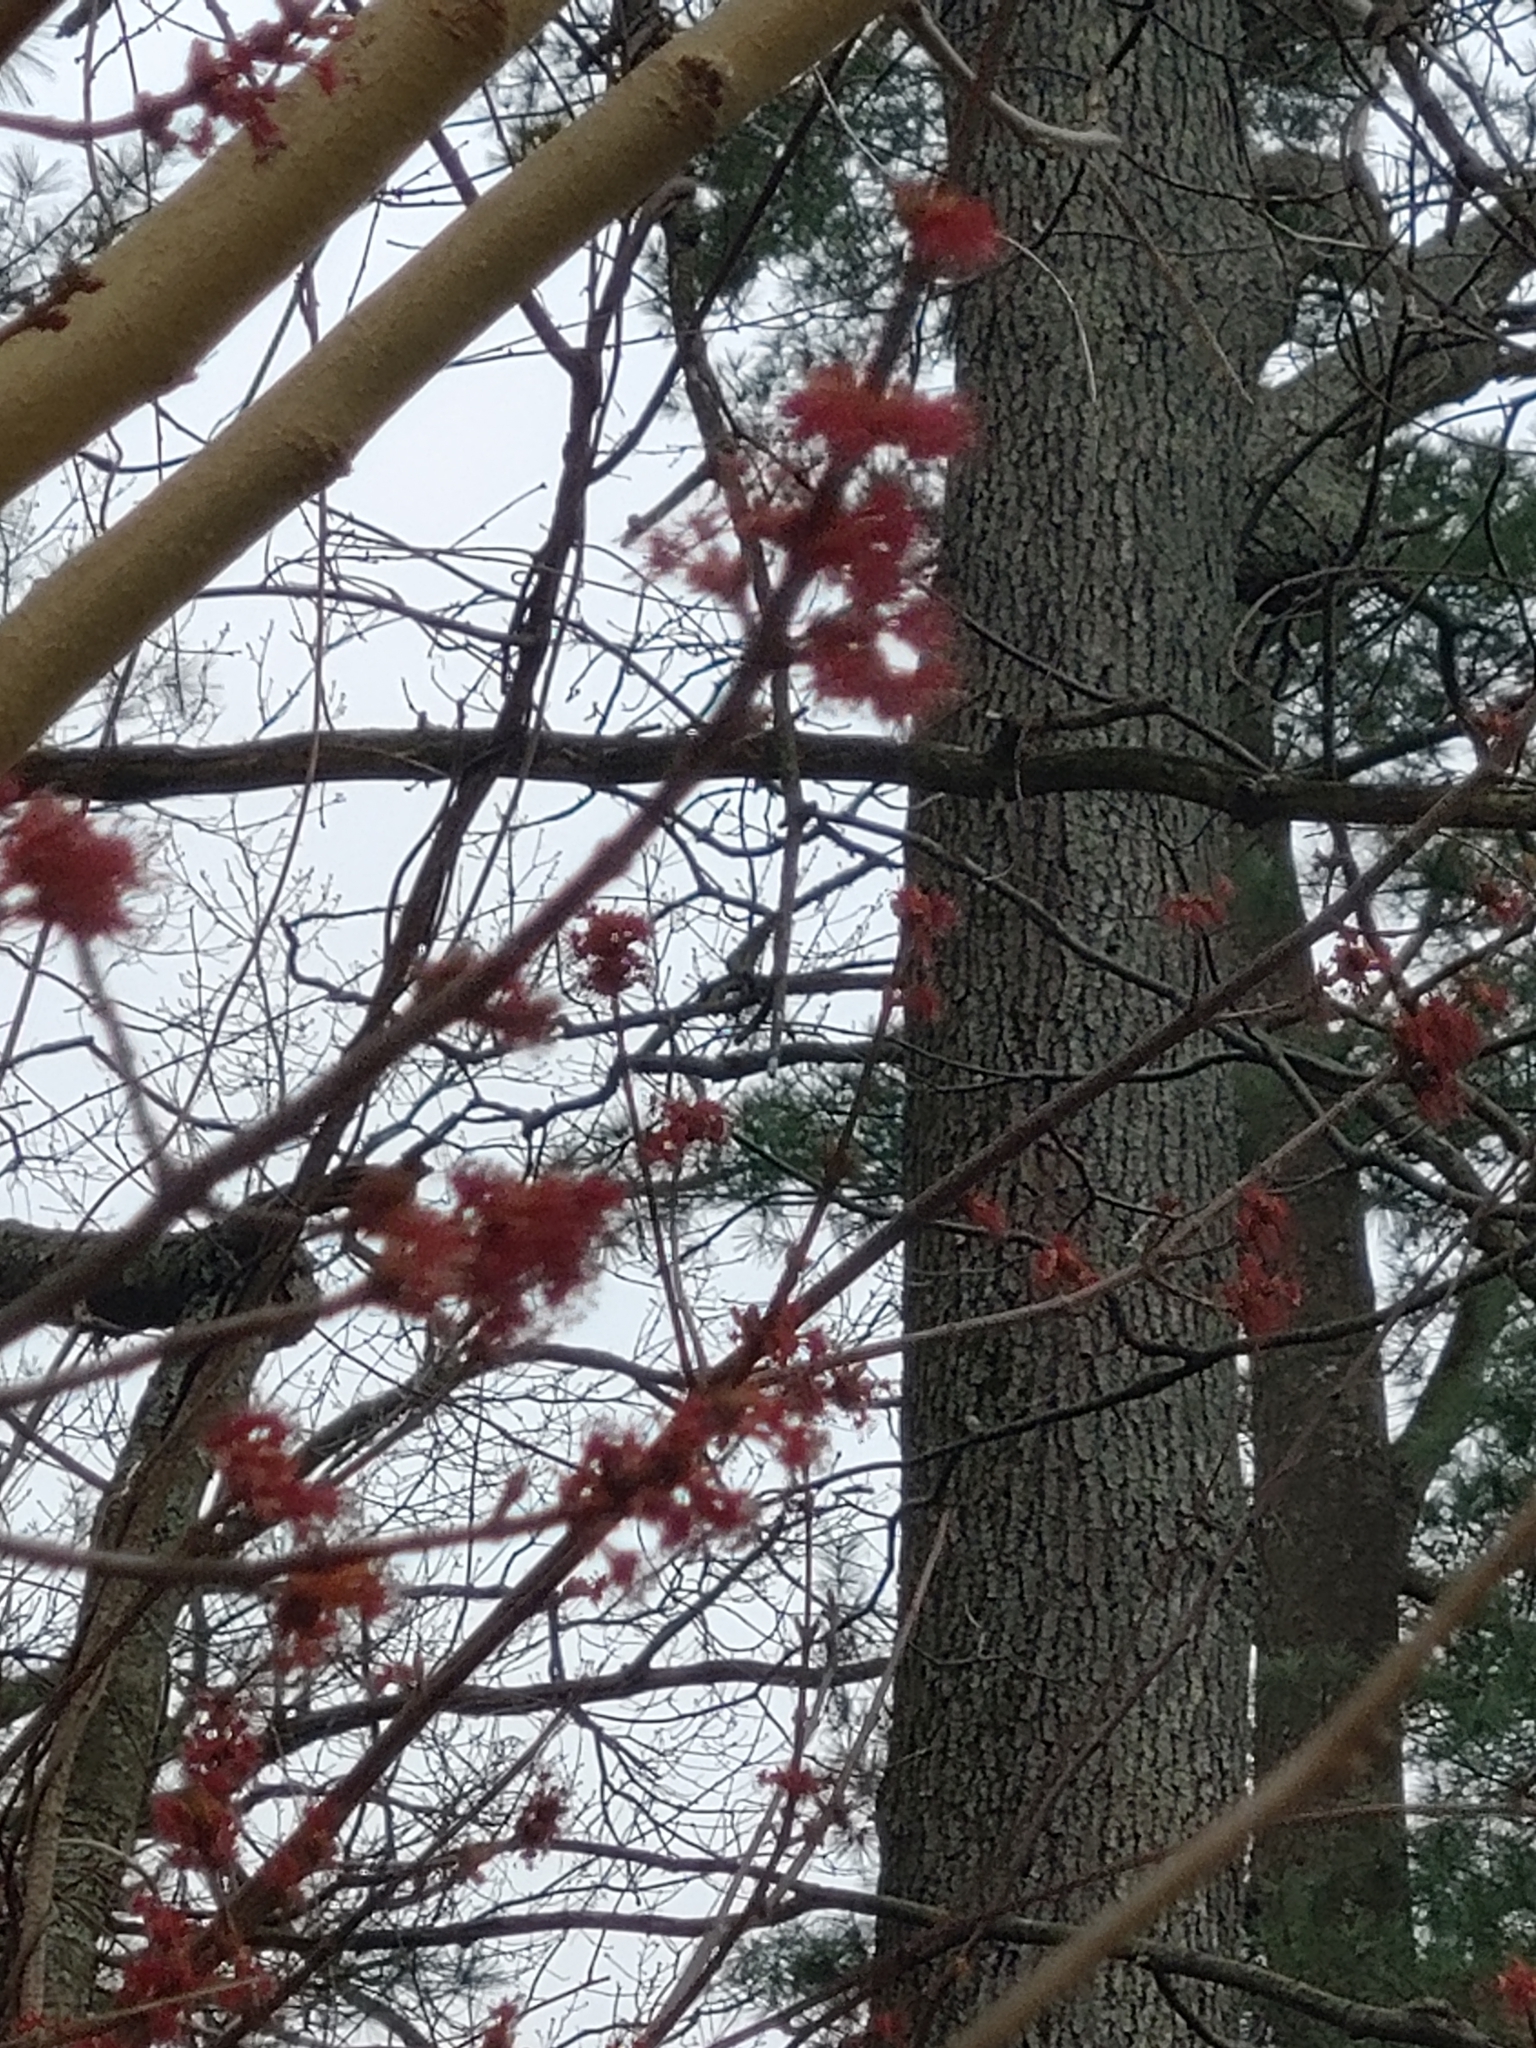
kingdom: Plantae
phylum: Tracheophyta
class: Magnoliopsida
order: Sapindales
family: Sapindaceae
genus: Acer
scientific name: Acer rubrum
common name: Red maple
